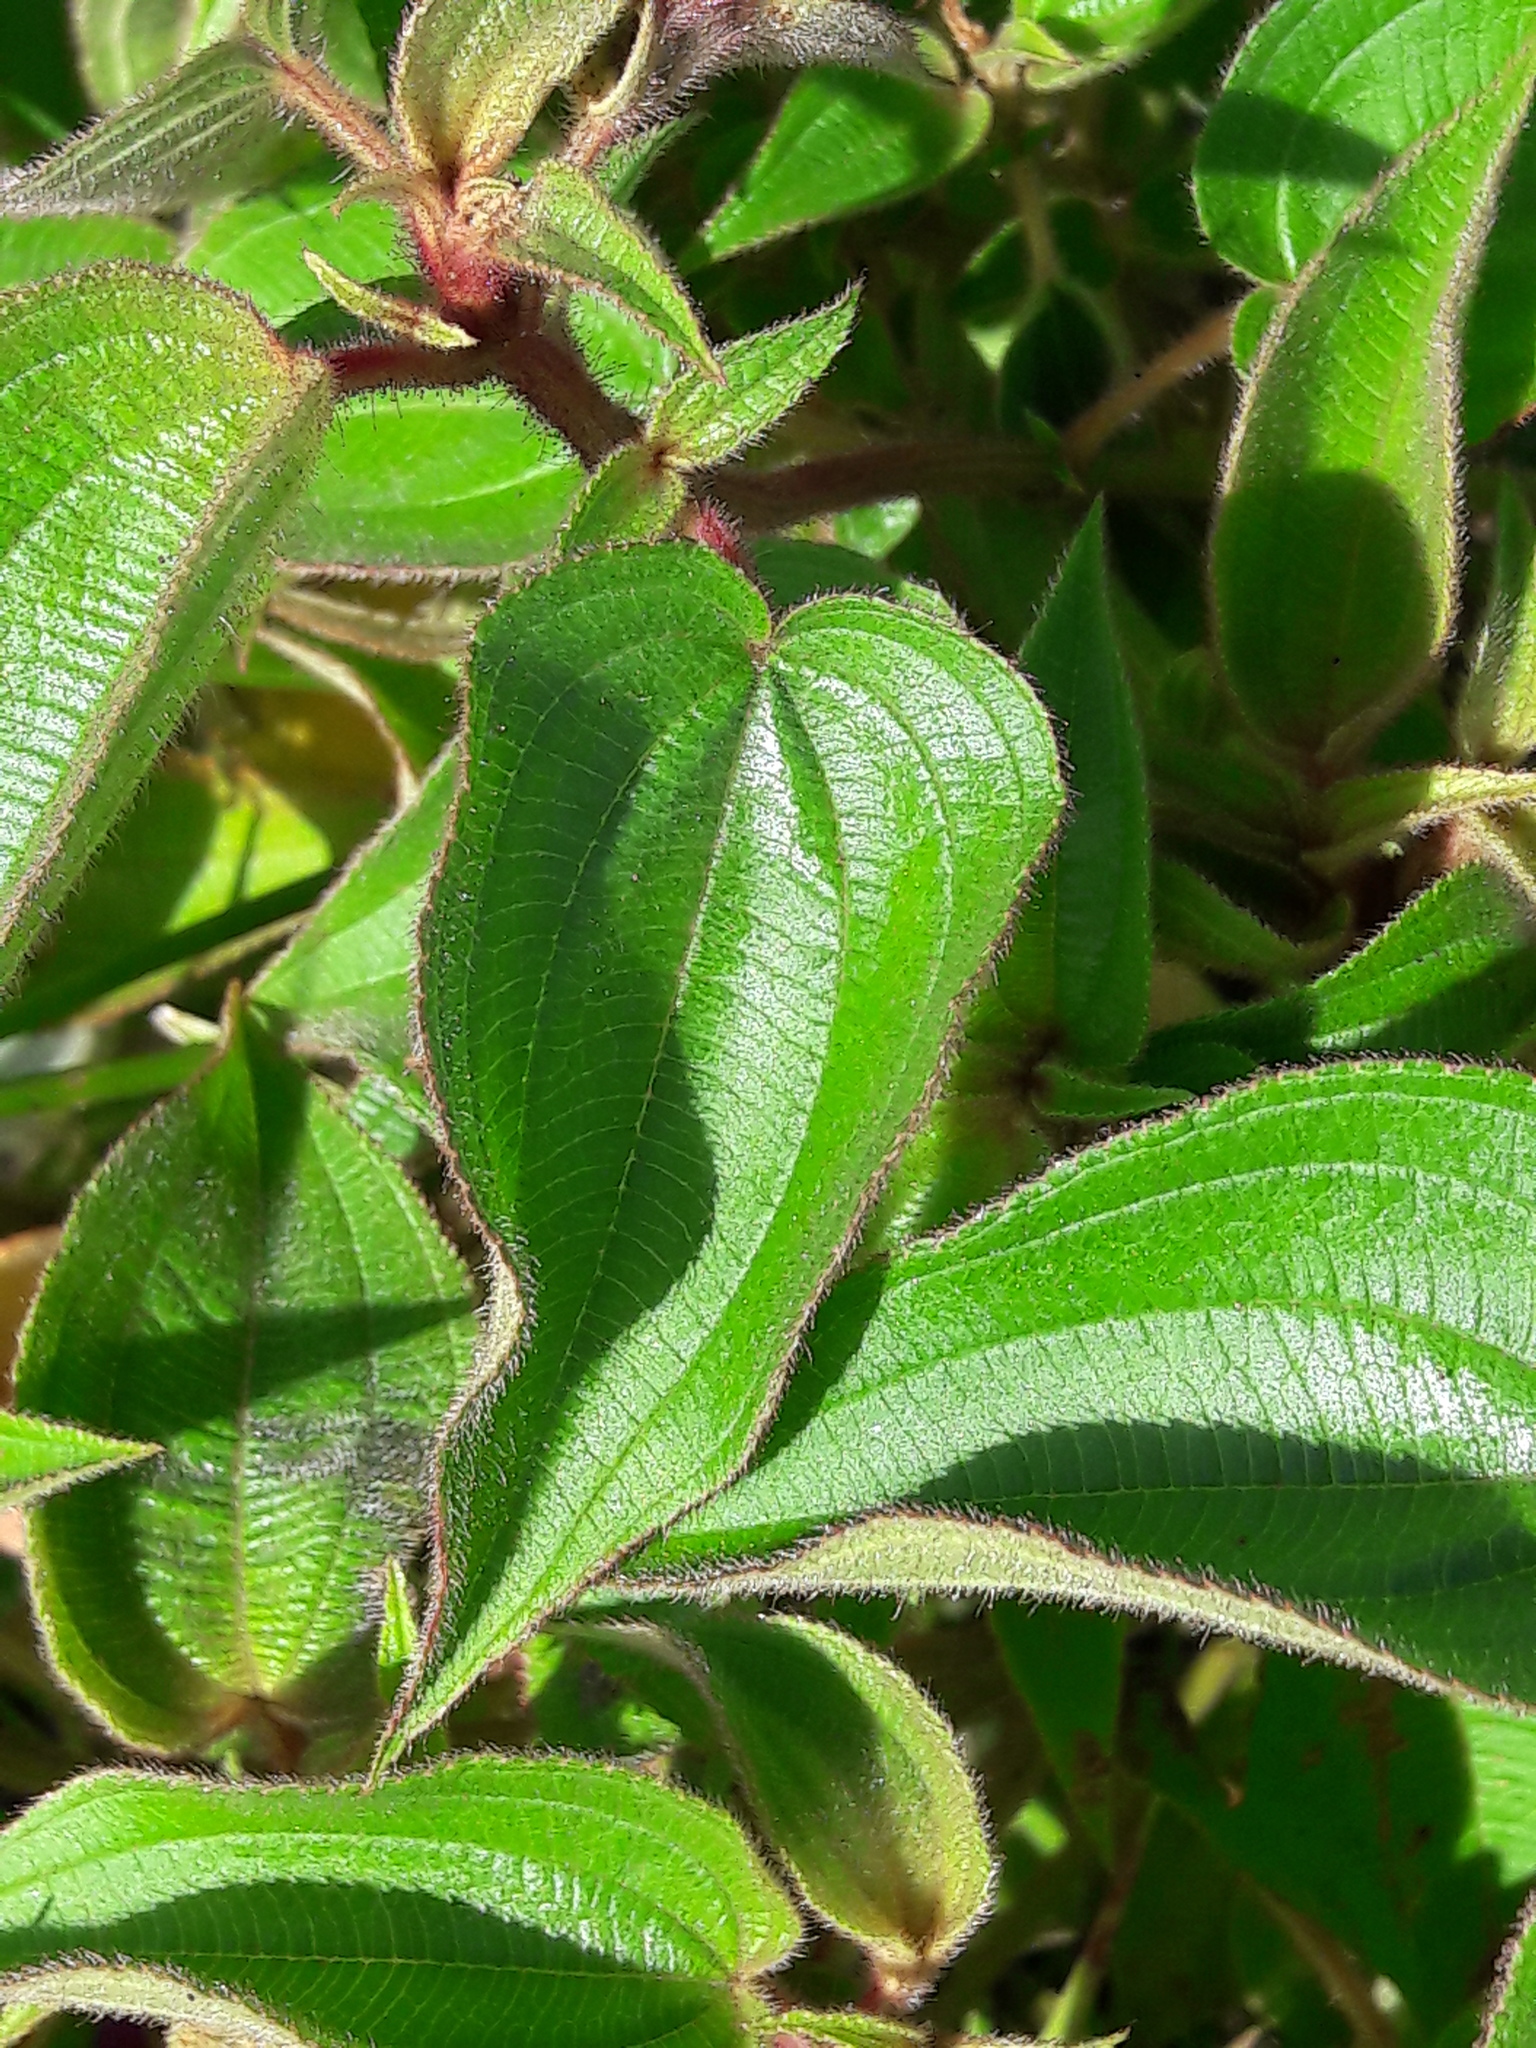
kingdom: Plantae
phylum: Tracheophyta
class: Magnoliopsida
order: Myrtales
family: Melastomataceae
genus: Rhynchanthera
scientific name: Rhynchanthera grandiflora
